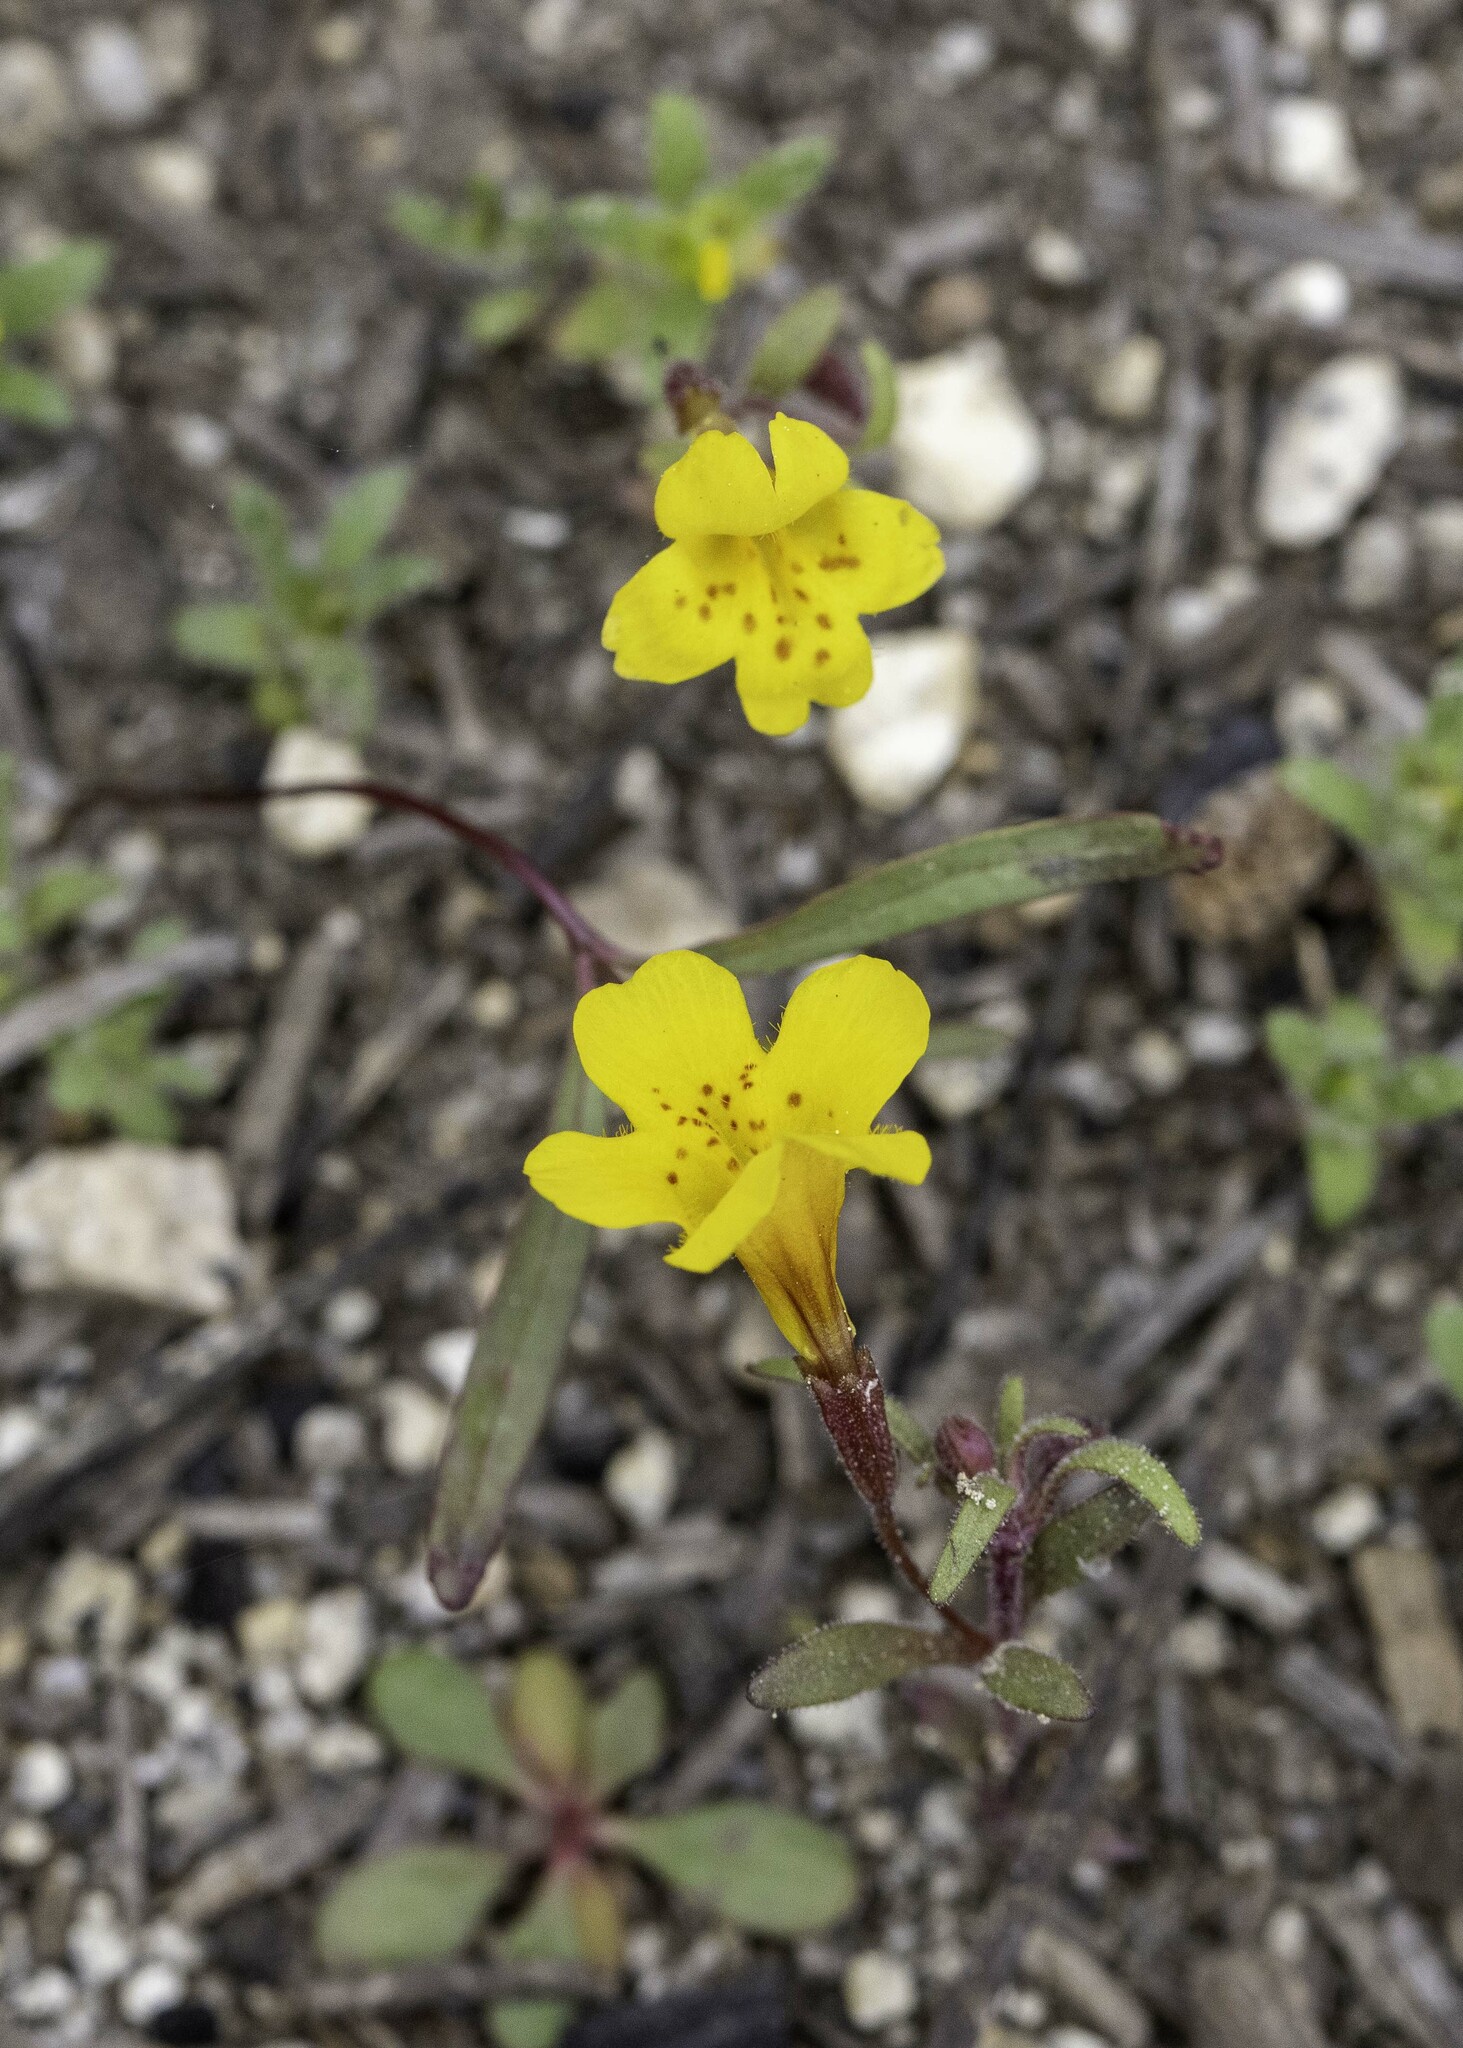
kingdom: Plantae
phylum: Tracheophyta
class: Magnoliopsida
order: Lamiales
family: Phrymaceae
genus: Erythranthe
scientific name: Erythranthe montioides
